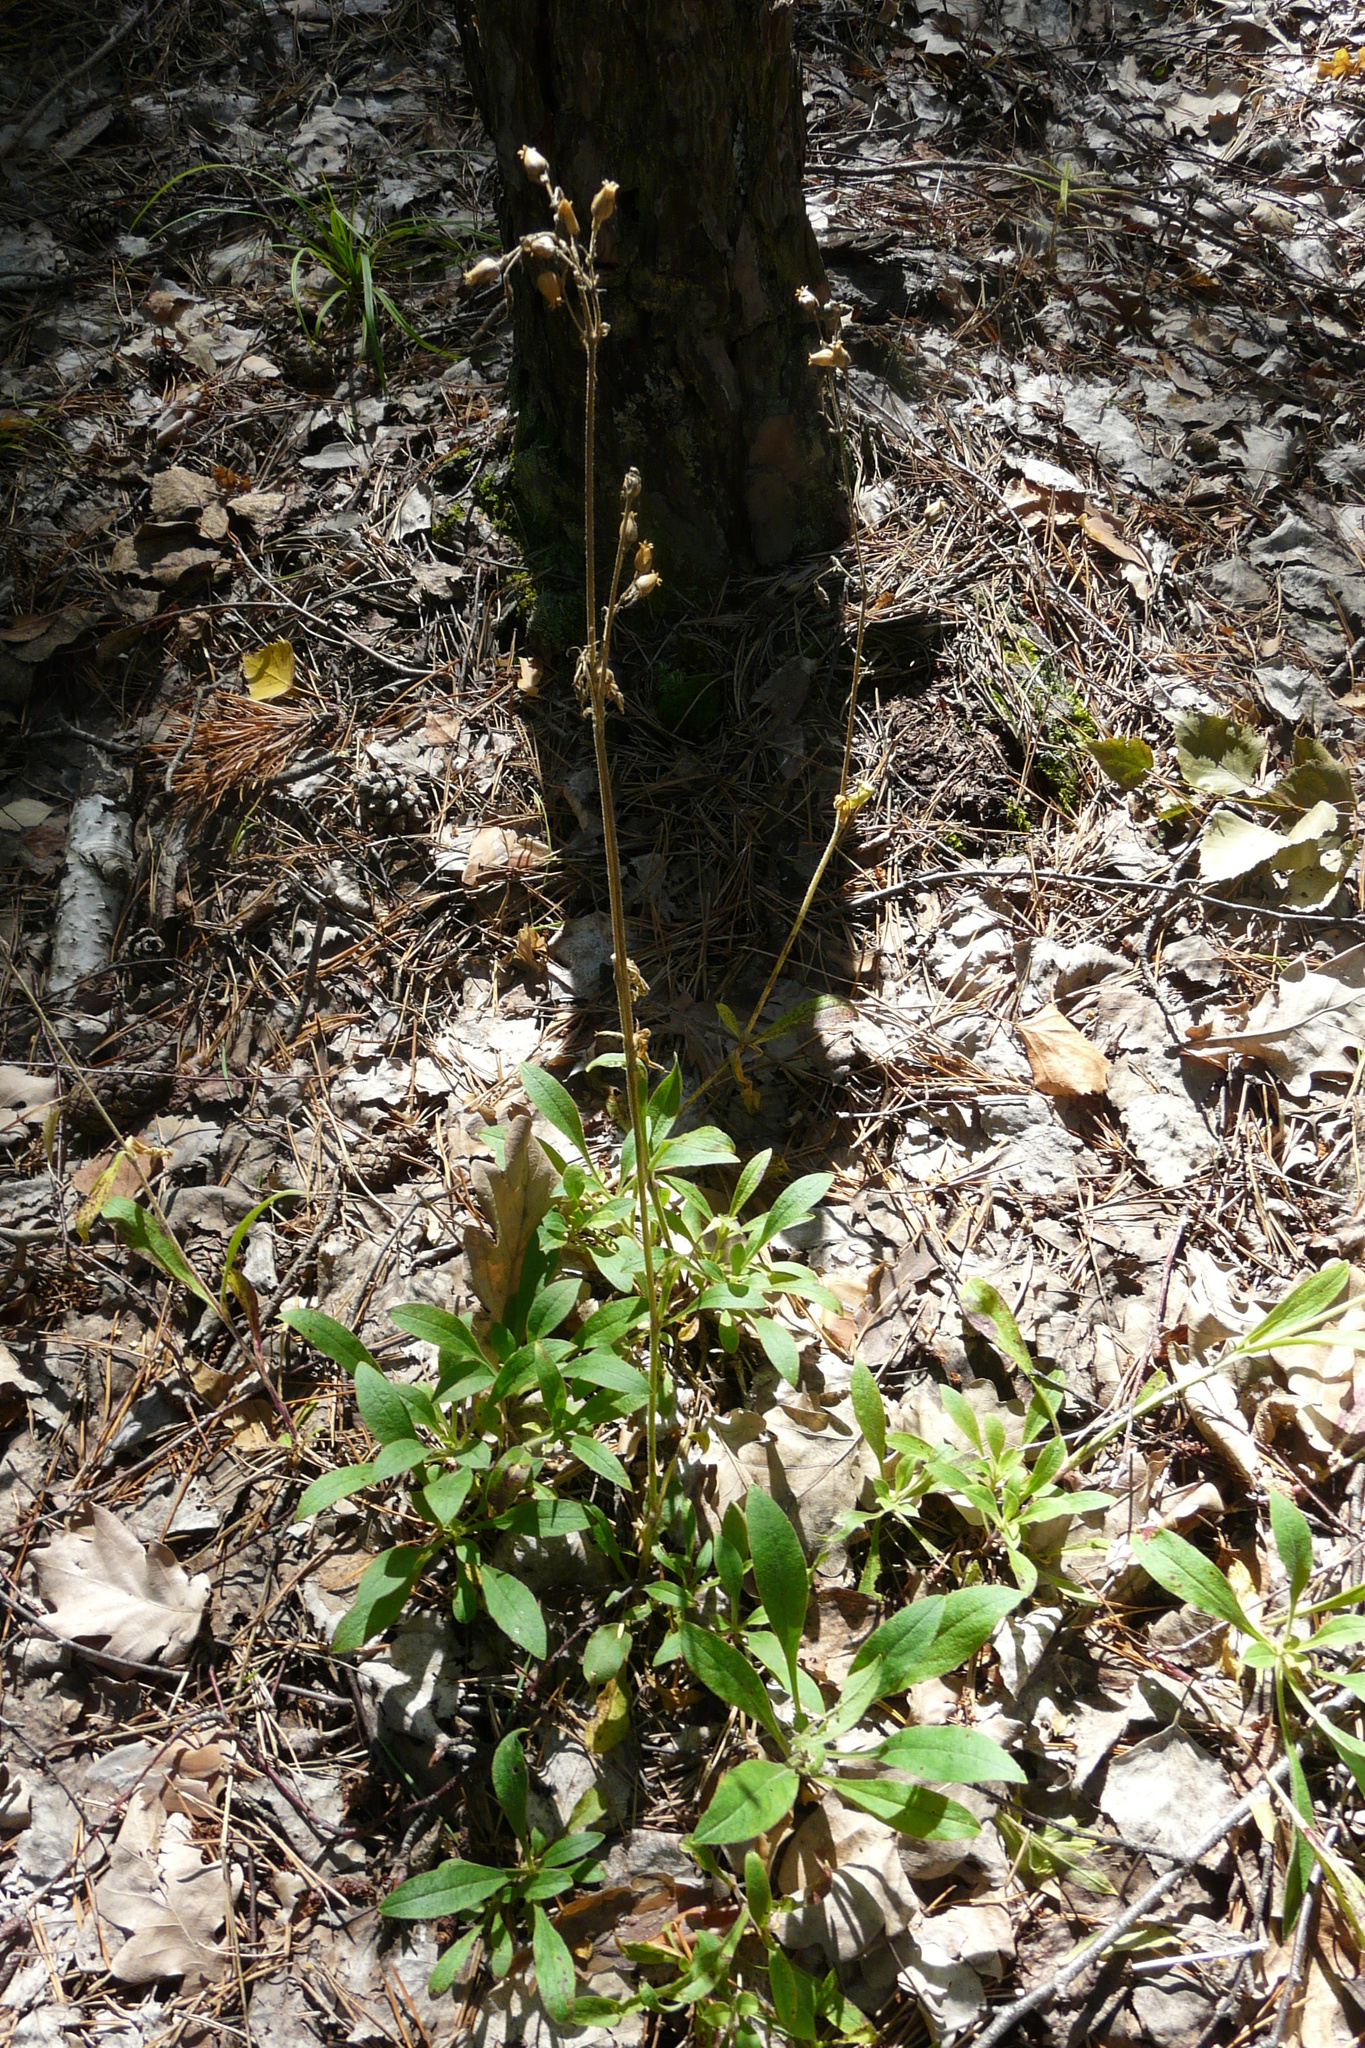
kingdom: Plantae
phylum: Tracheophyta
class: Magnoliopsida
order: Caryophyllales
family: Caryophyllaceae
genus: Viscaria
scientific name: Viscaria vulgaris
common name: Clammy campion
